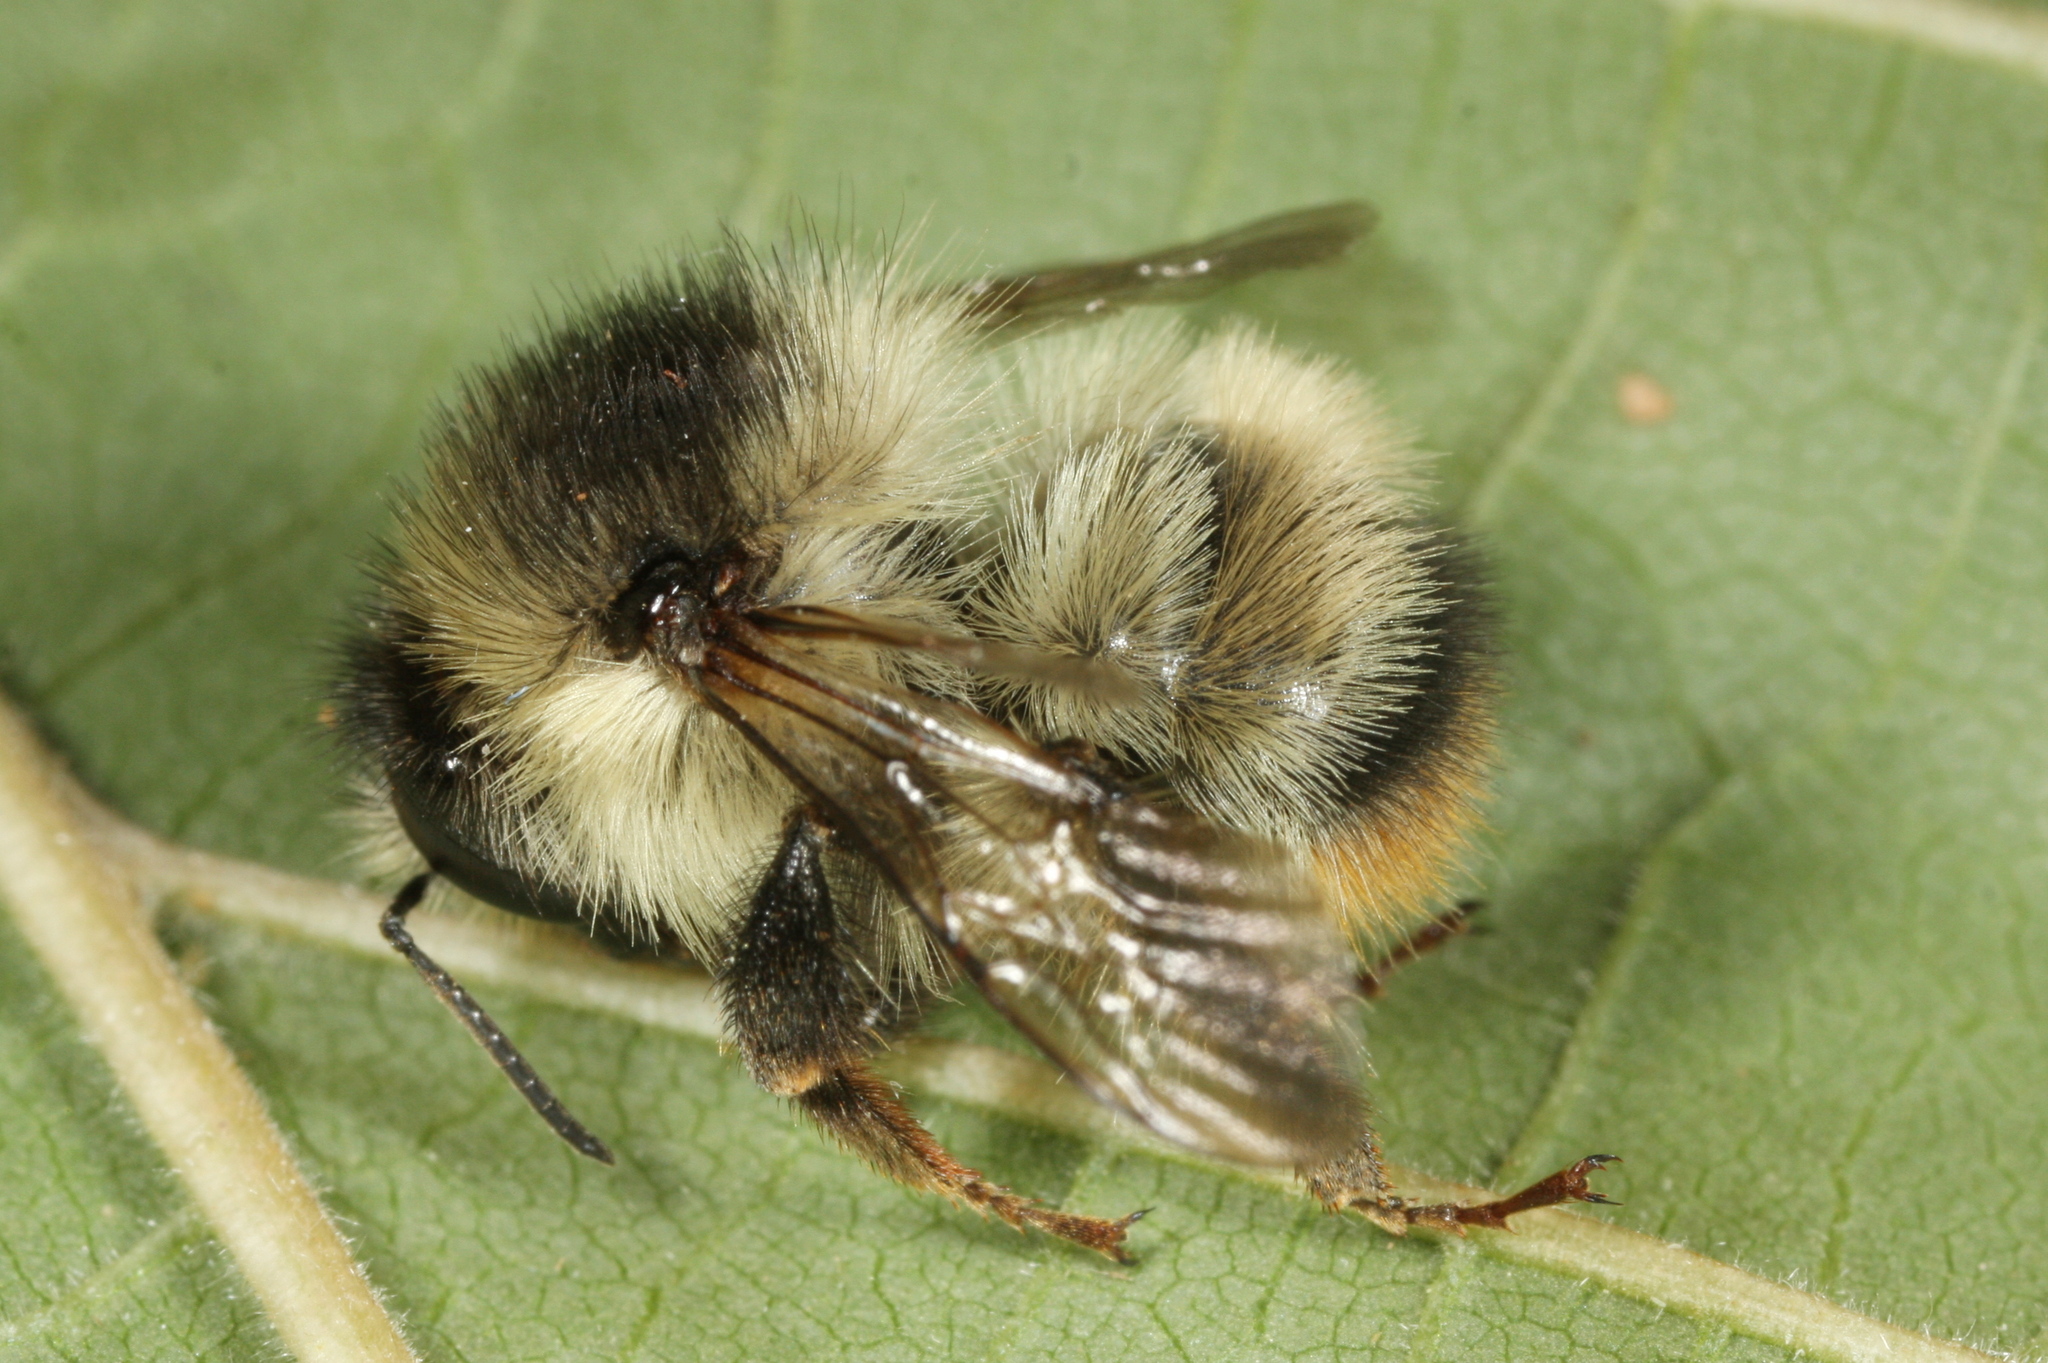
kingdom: Animalia
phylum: Arthropoda
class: Insecta
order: Hymenoptera
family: Apidae
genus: Bombus
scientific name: Bombus sylvarum
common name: Shrill carder bee
